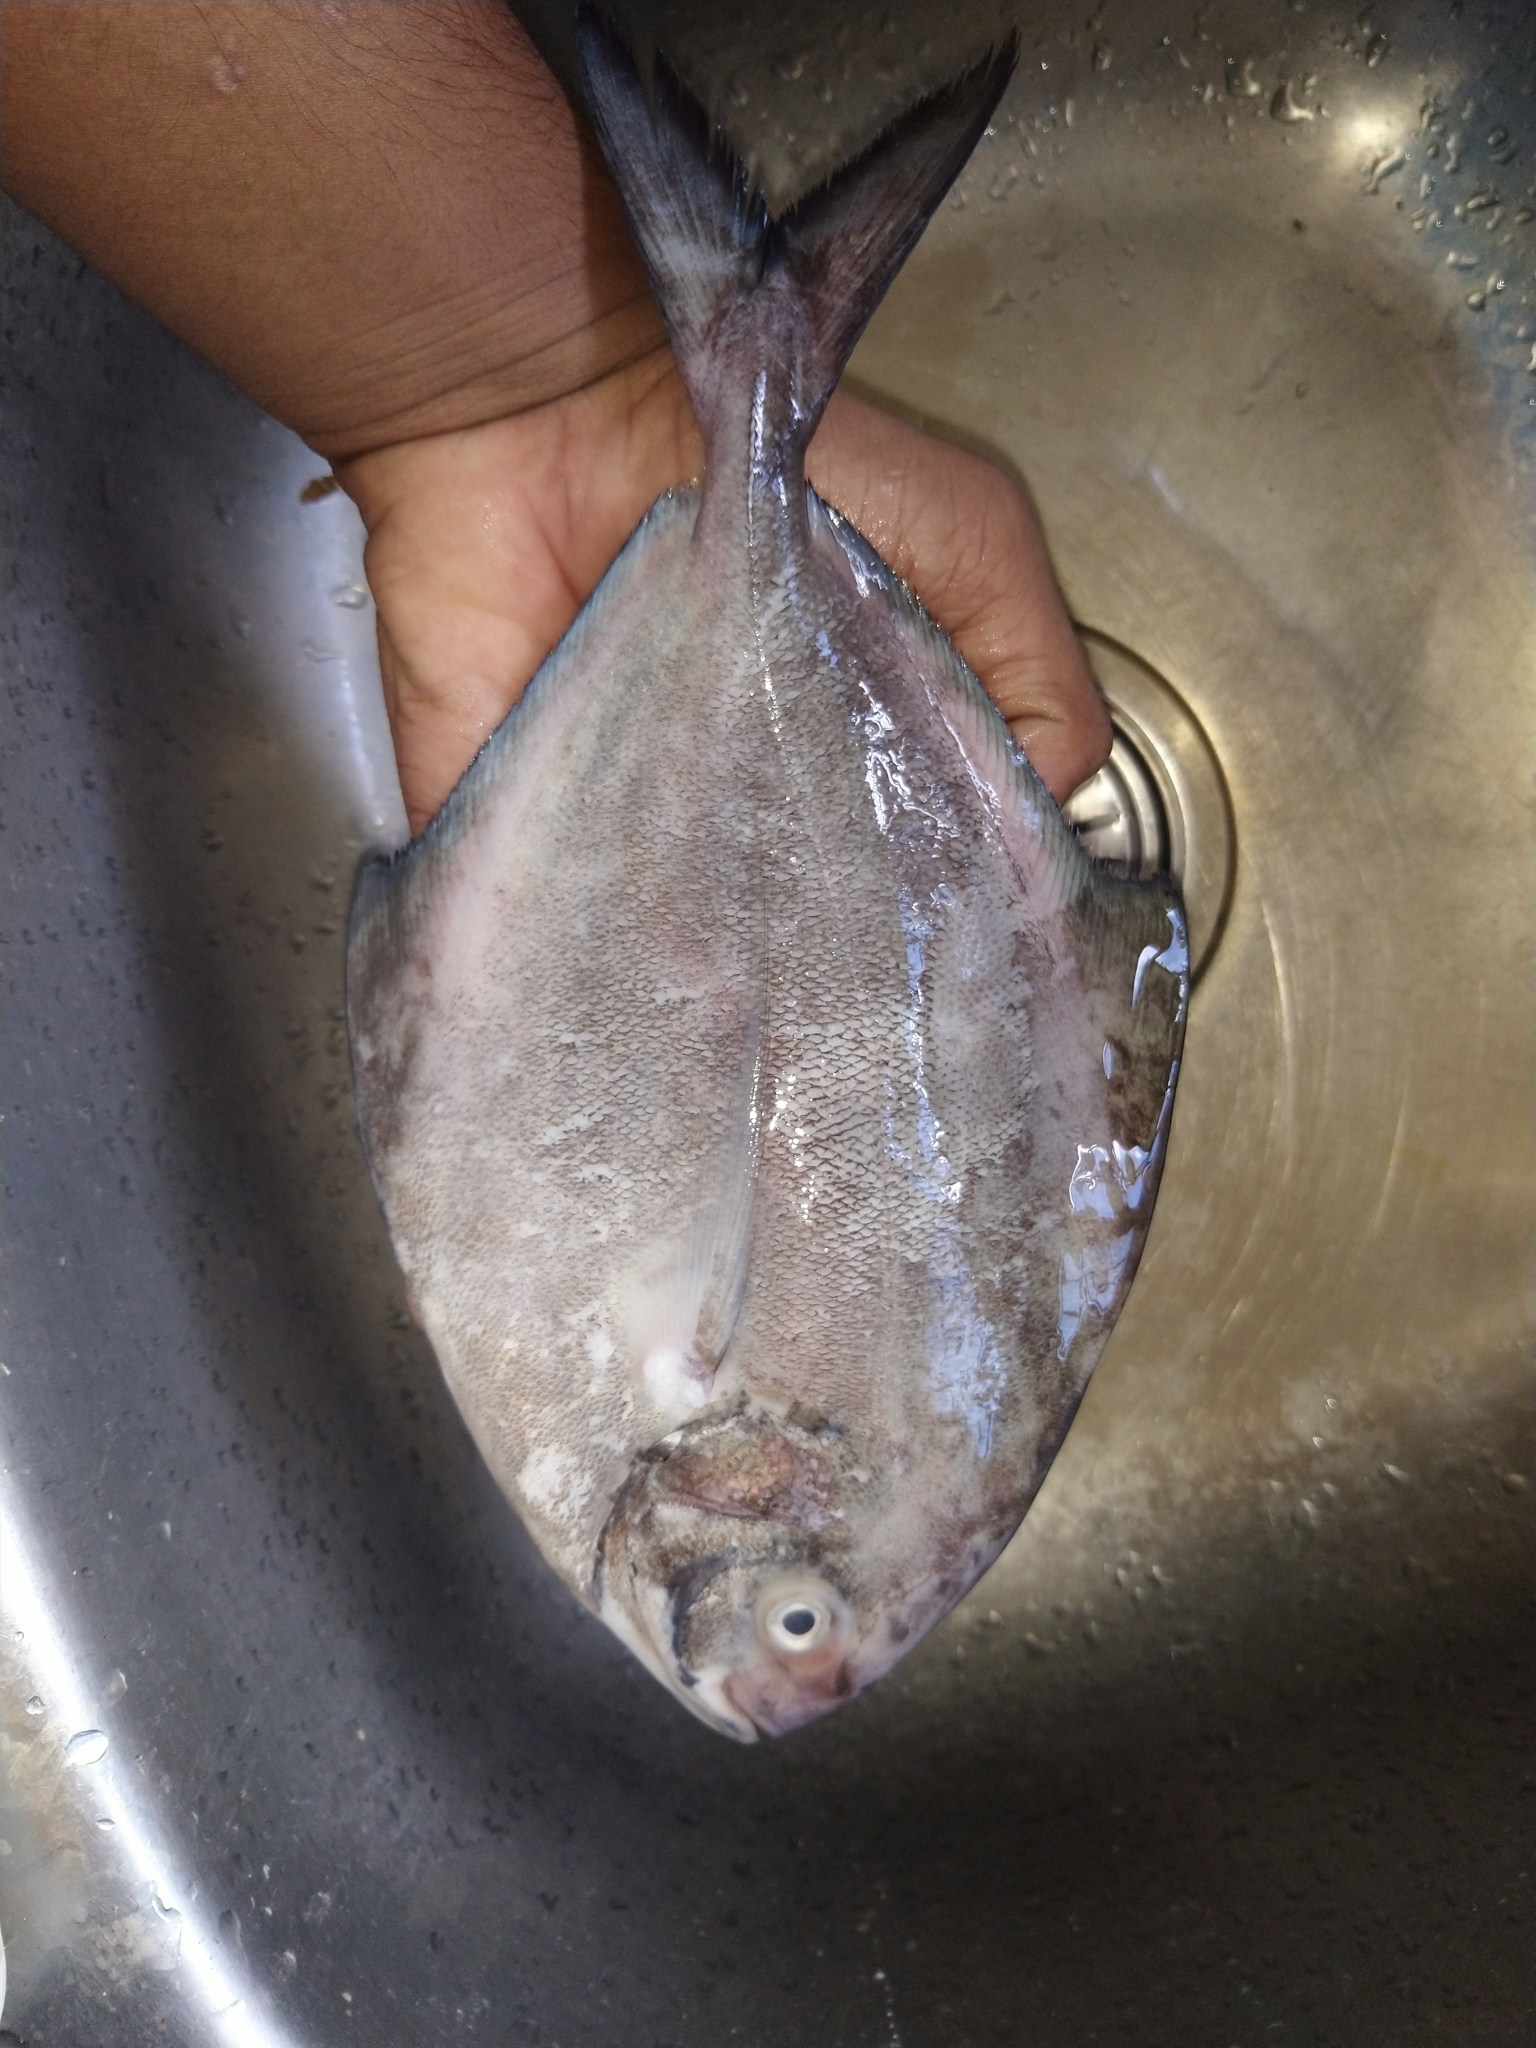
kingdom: Animalia
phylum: Chordata
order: Perciformes
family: Carangidae
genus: Parastromateus
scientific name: Parastromateus niger
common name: Black pomfret
